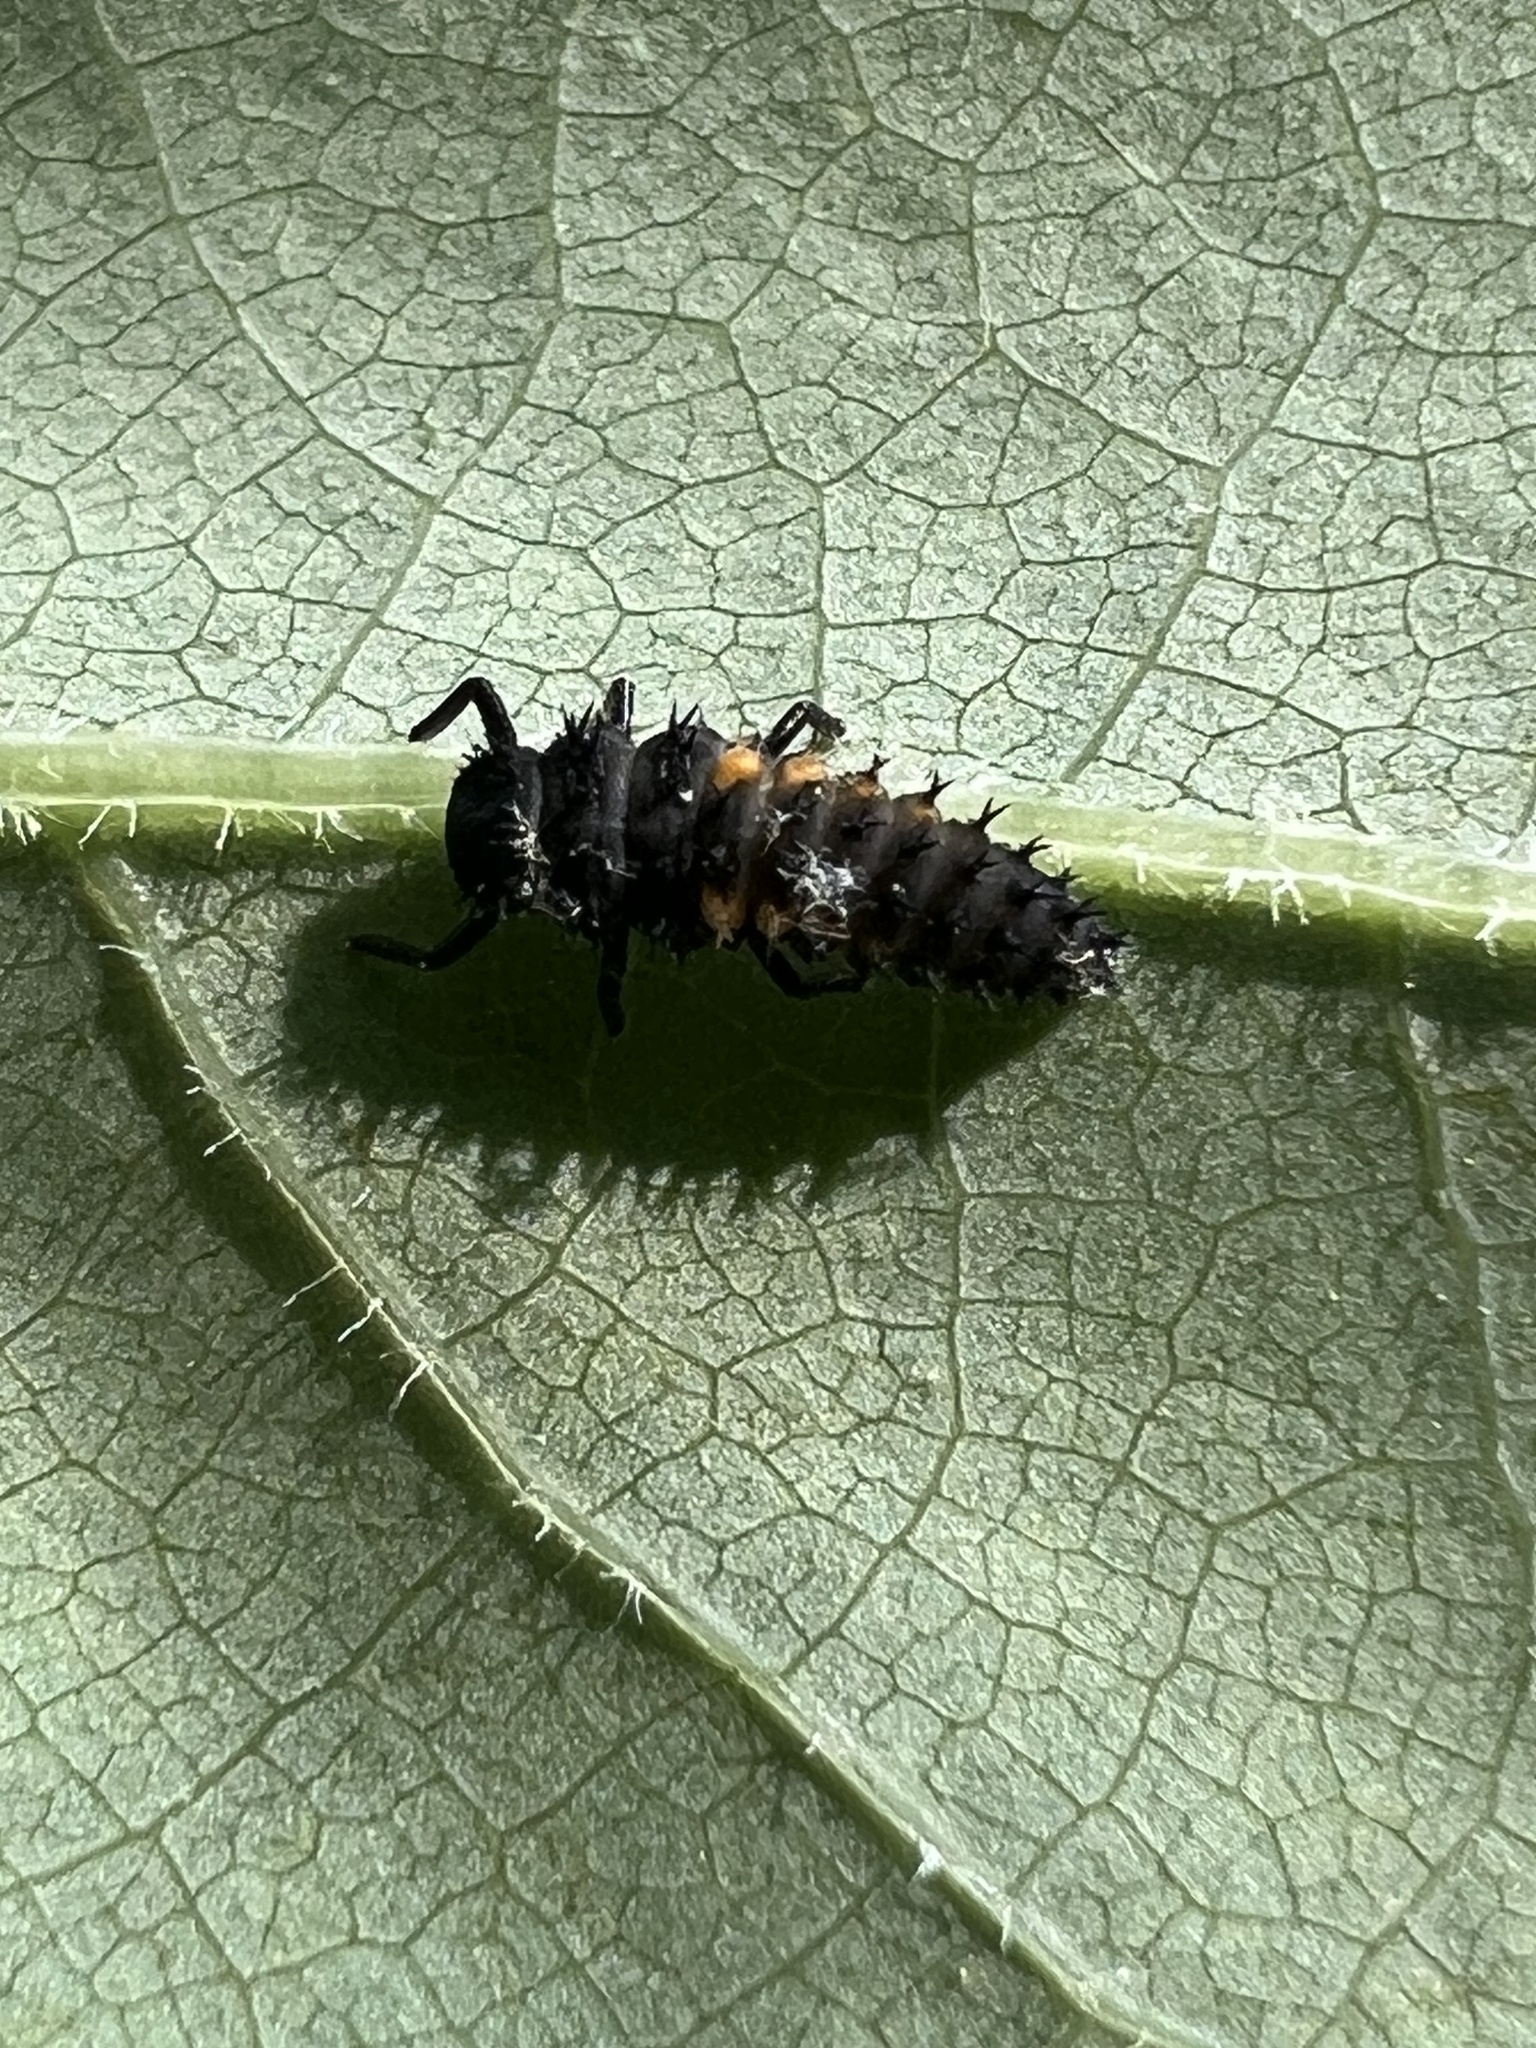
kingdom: Animalia
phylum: Arthropoda
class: Insecta
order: Coleoptera
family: Coccinellidae
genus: Harmonia
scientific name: Harmonia axyridis
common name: Harlequin ladybird
